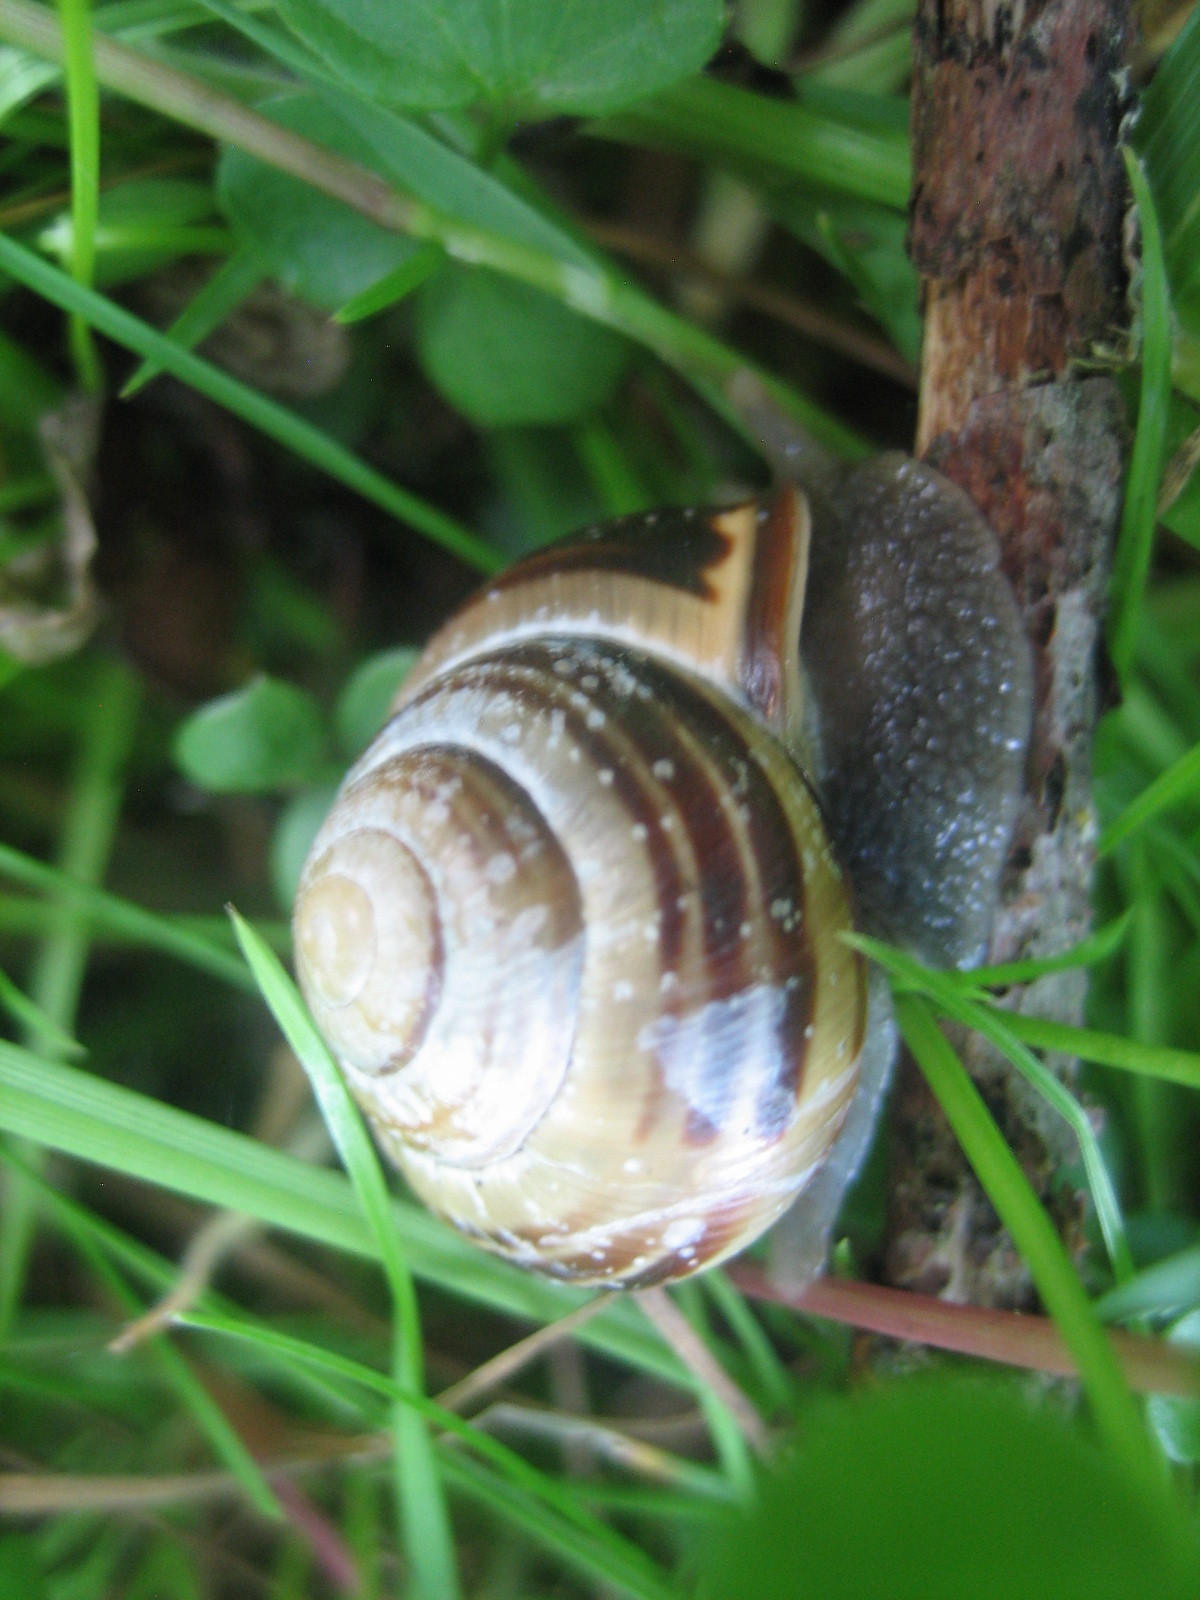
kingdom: Animalia
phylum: Mollusca
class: Gastropoda
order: Stylommatophora
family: Helicidae
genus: Cepaea
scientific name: Cepaea nemoralis
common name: Grovesnail
